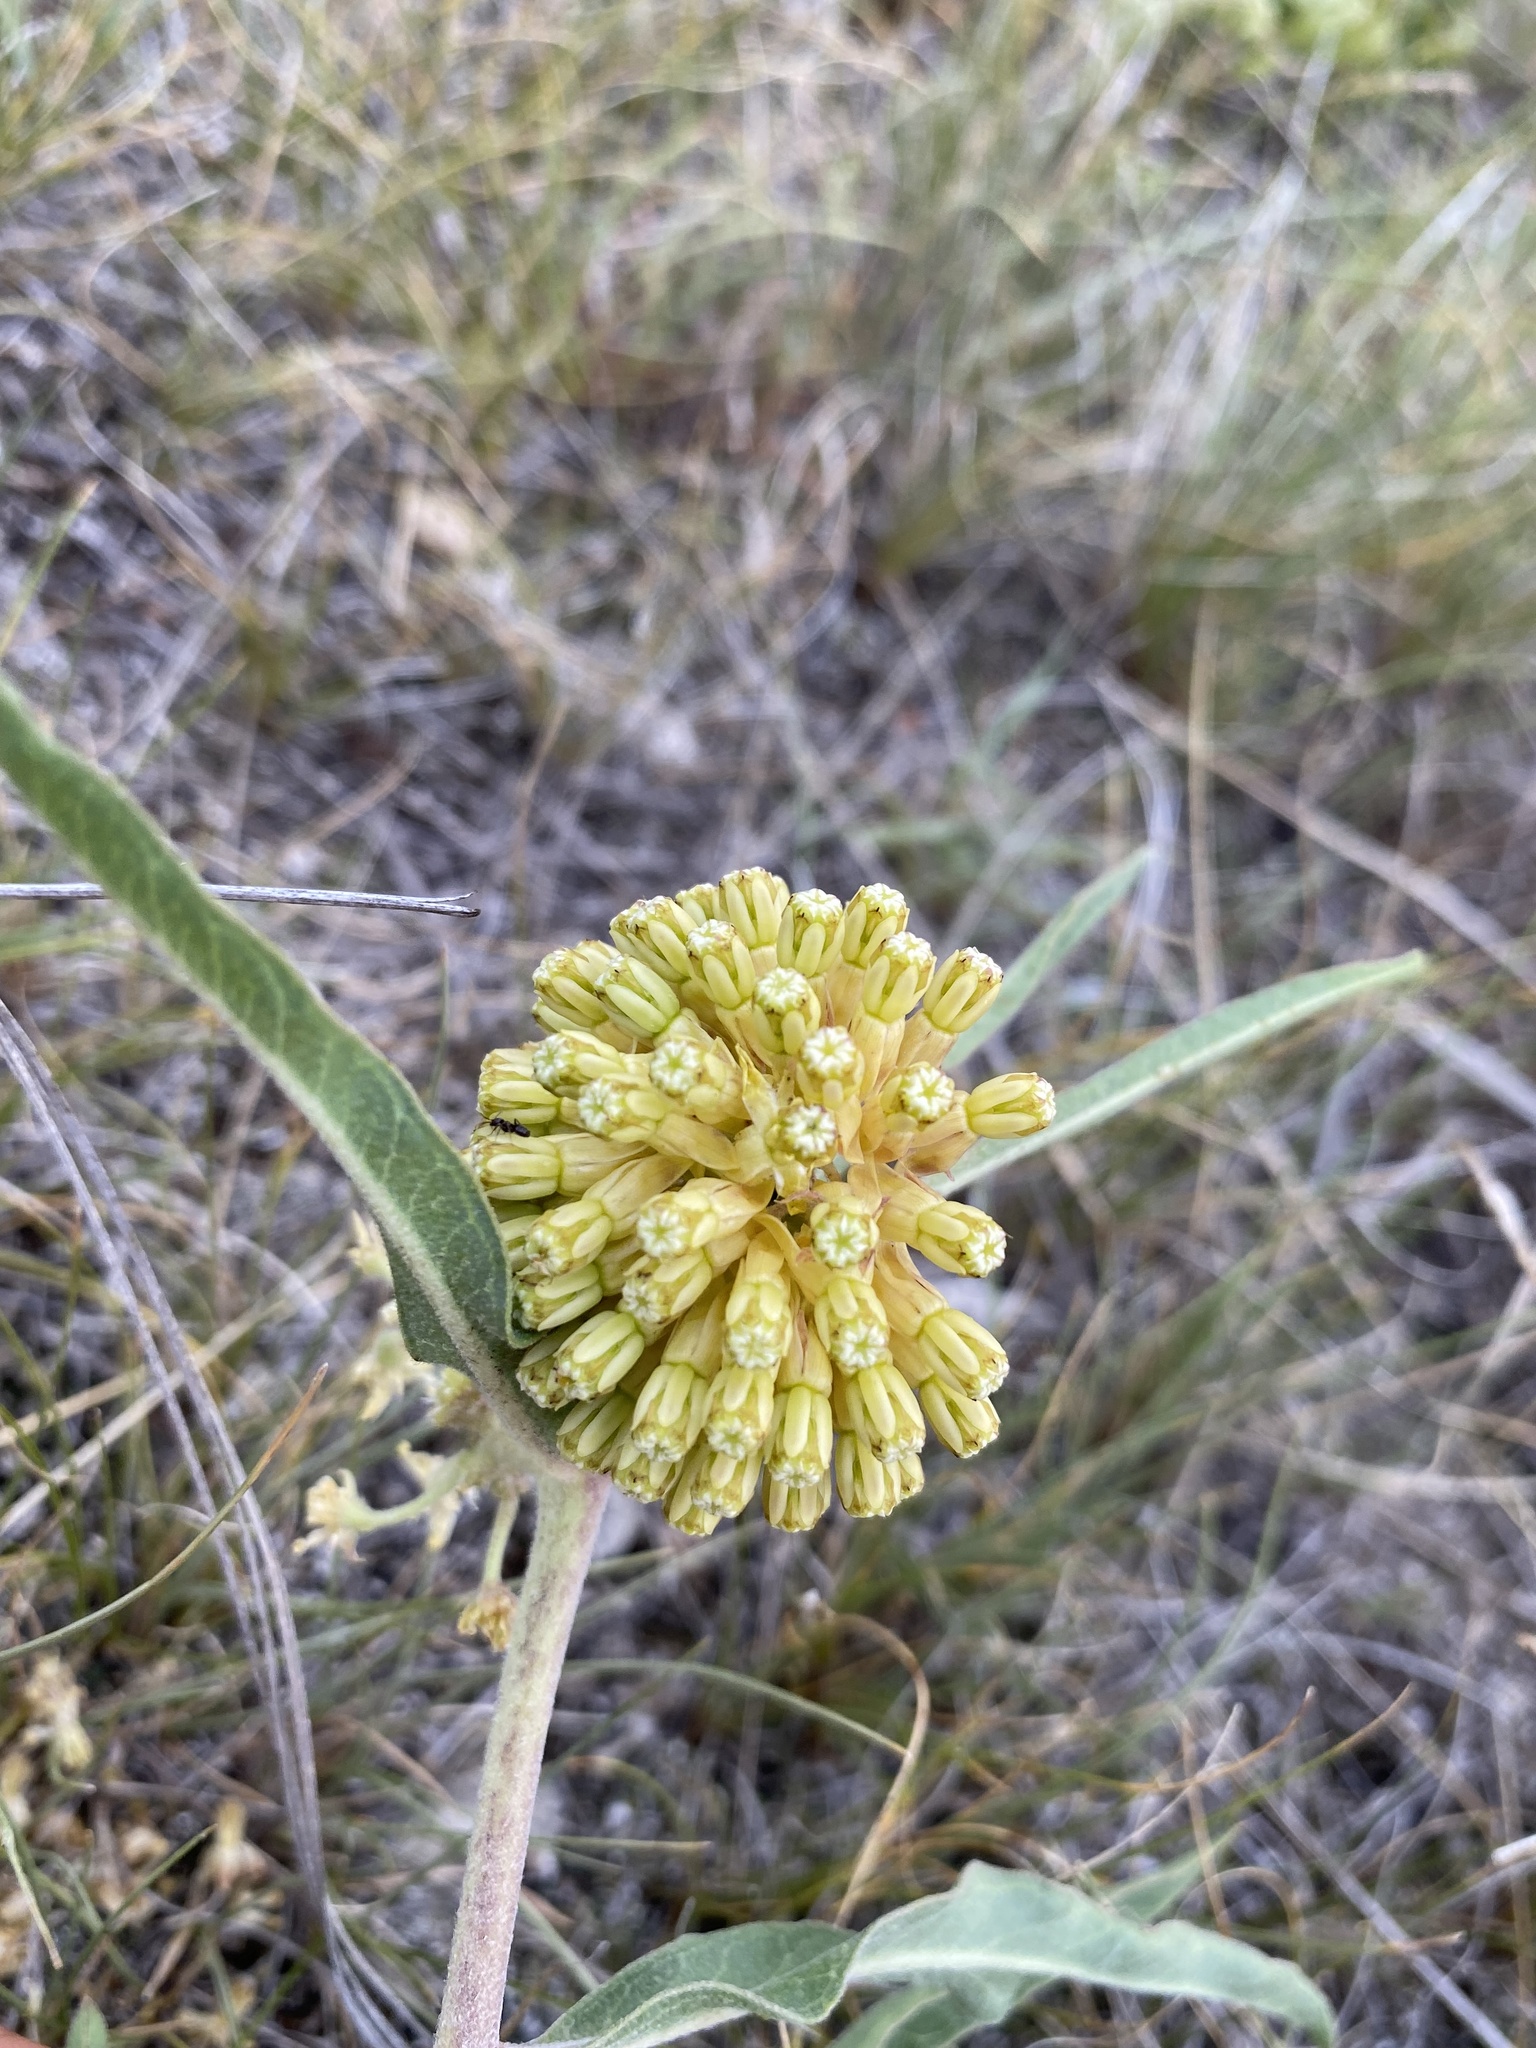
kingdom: Plantae
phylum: Tracheophyta
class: Magnoliopsida
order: Gentianales
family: Apocynaceae
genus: Asclepias
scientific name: Asclepias viridiflora
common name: Green comet milkweed
